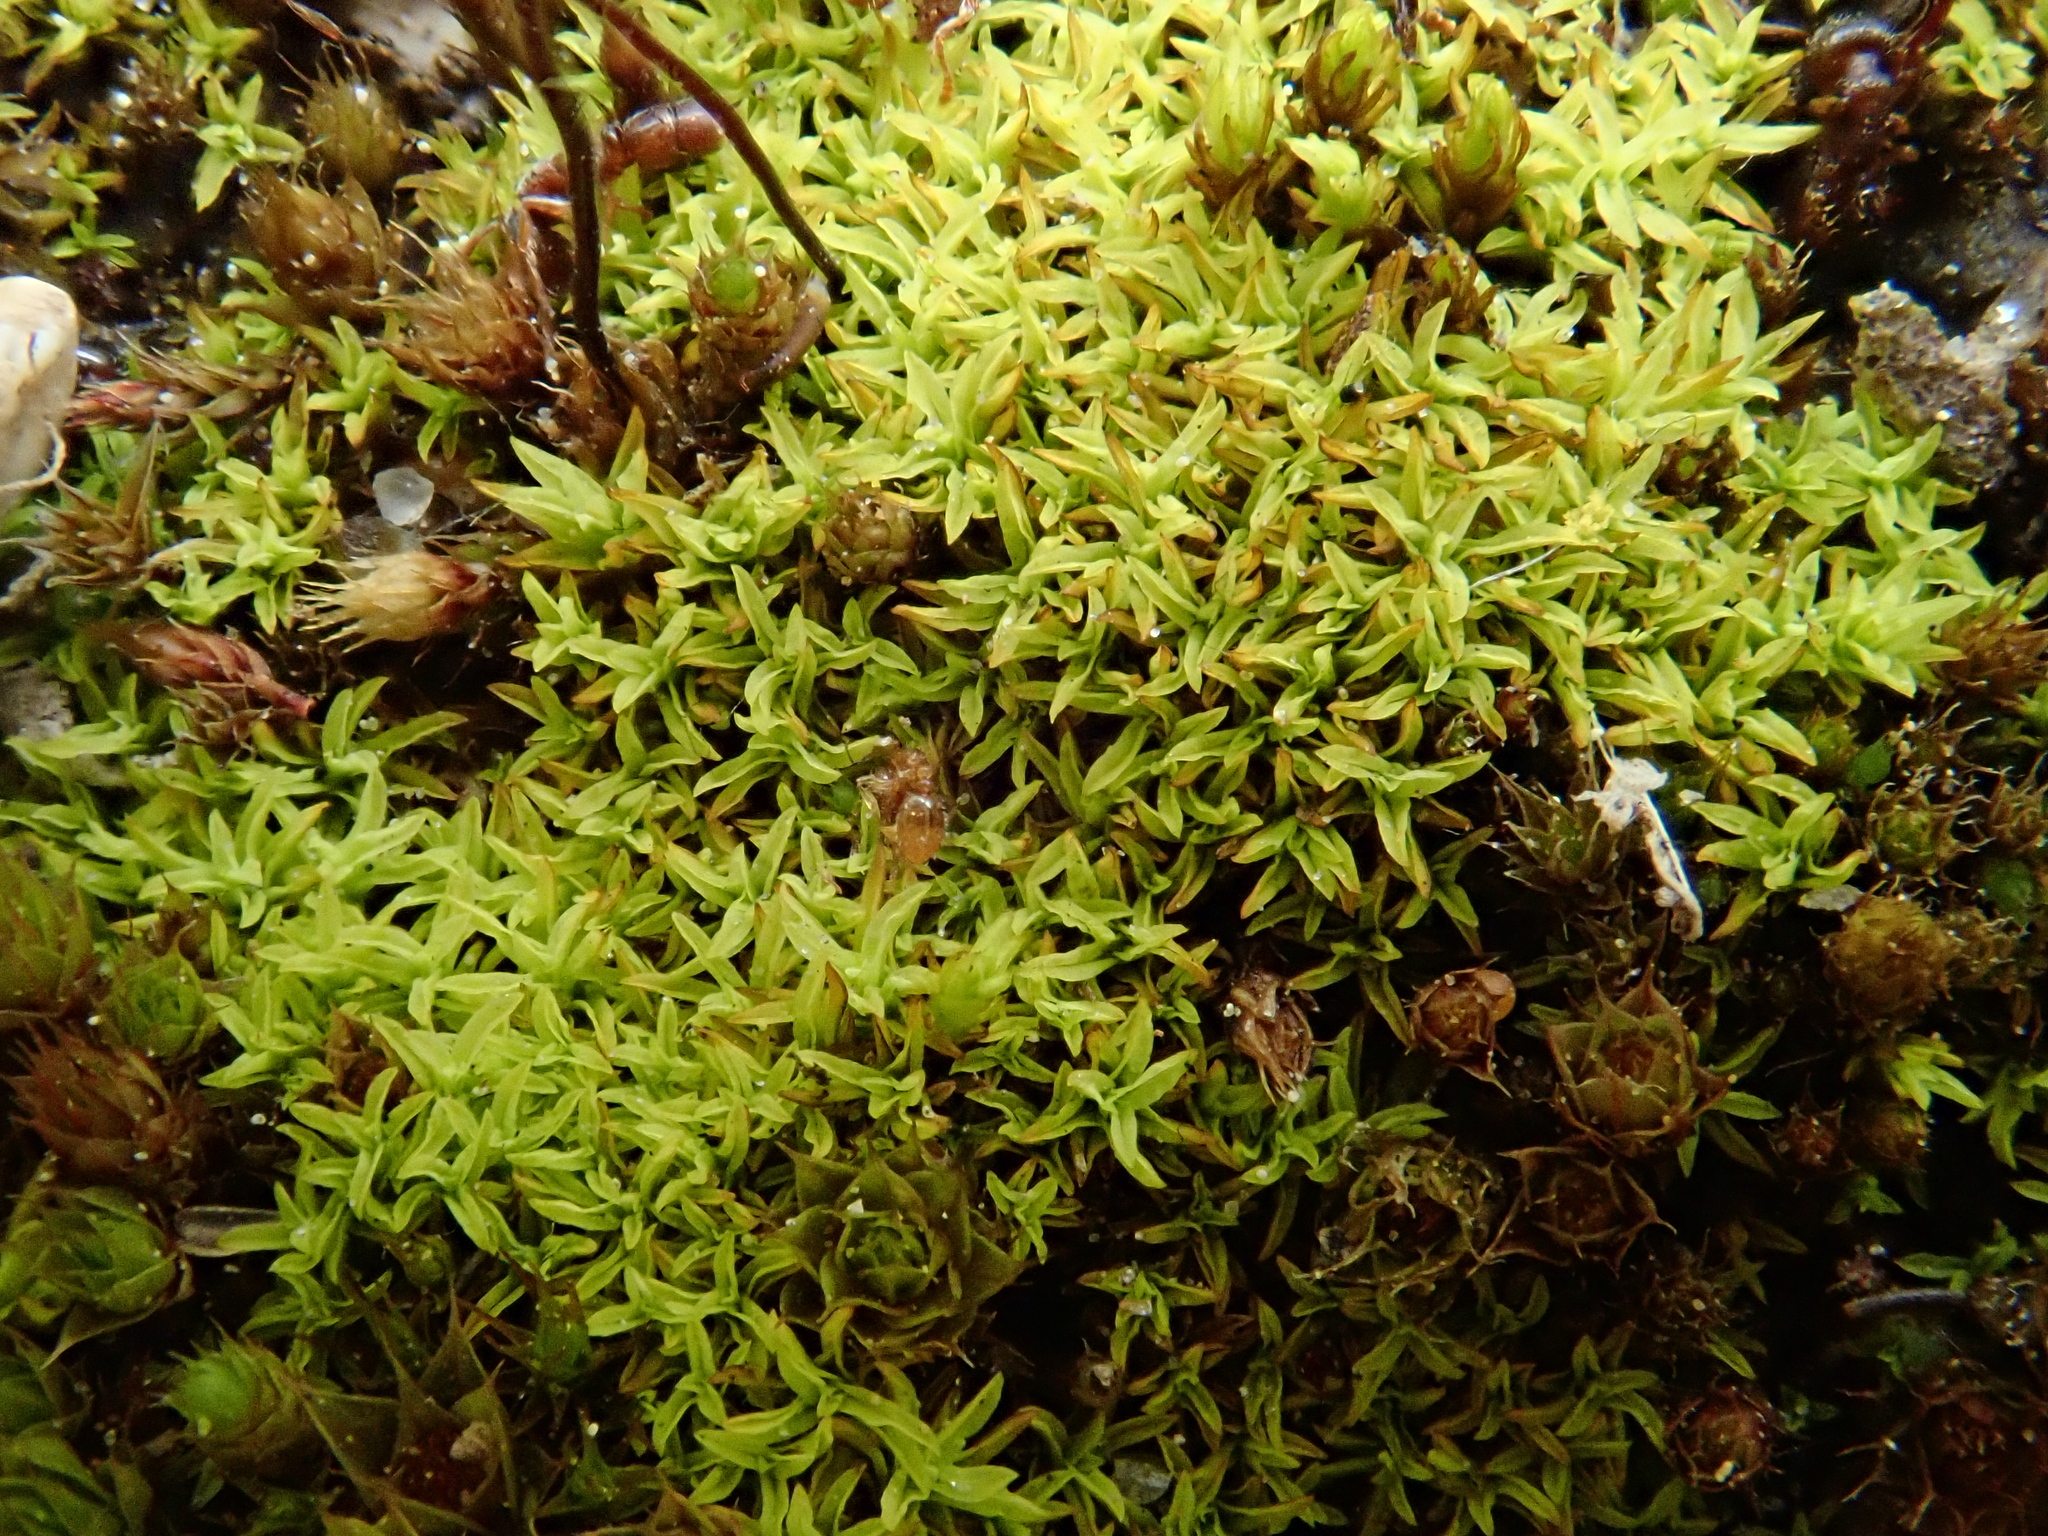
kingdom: Plantae
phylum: Bryophyta
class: Bryopsida
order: Pottiales
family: Pottiaceae
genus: Streblotrichum
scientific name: Streblotrichum convolutum
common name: Lesser bird's-claw beard-moss
